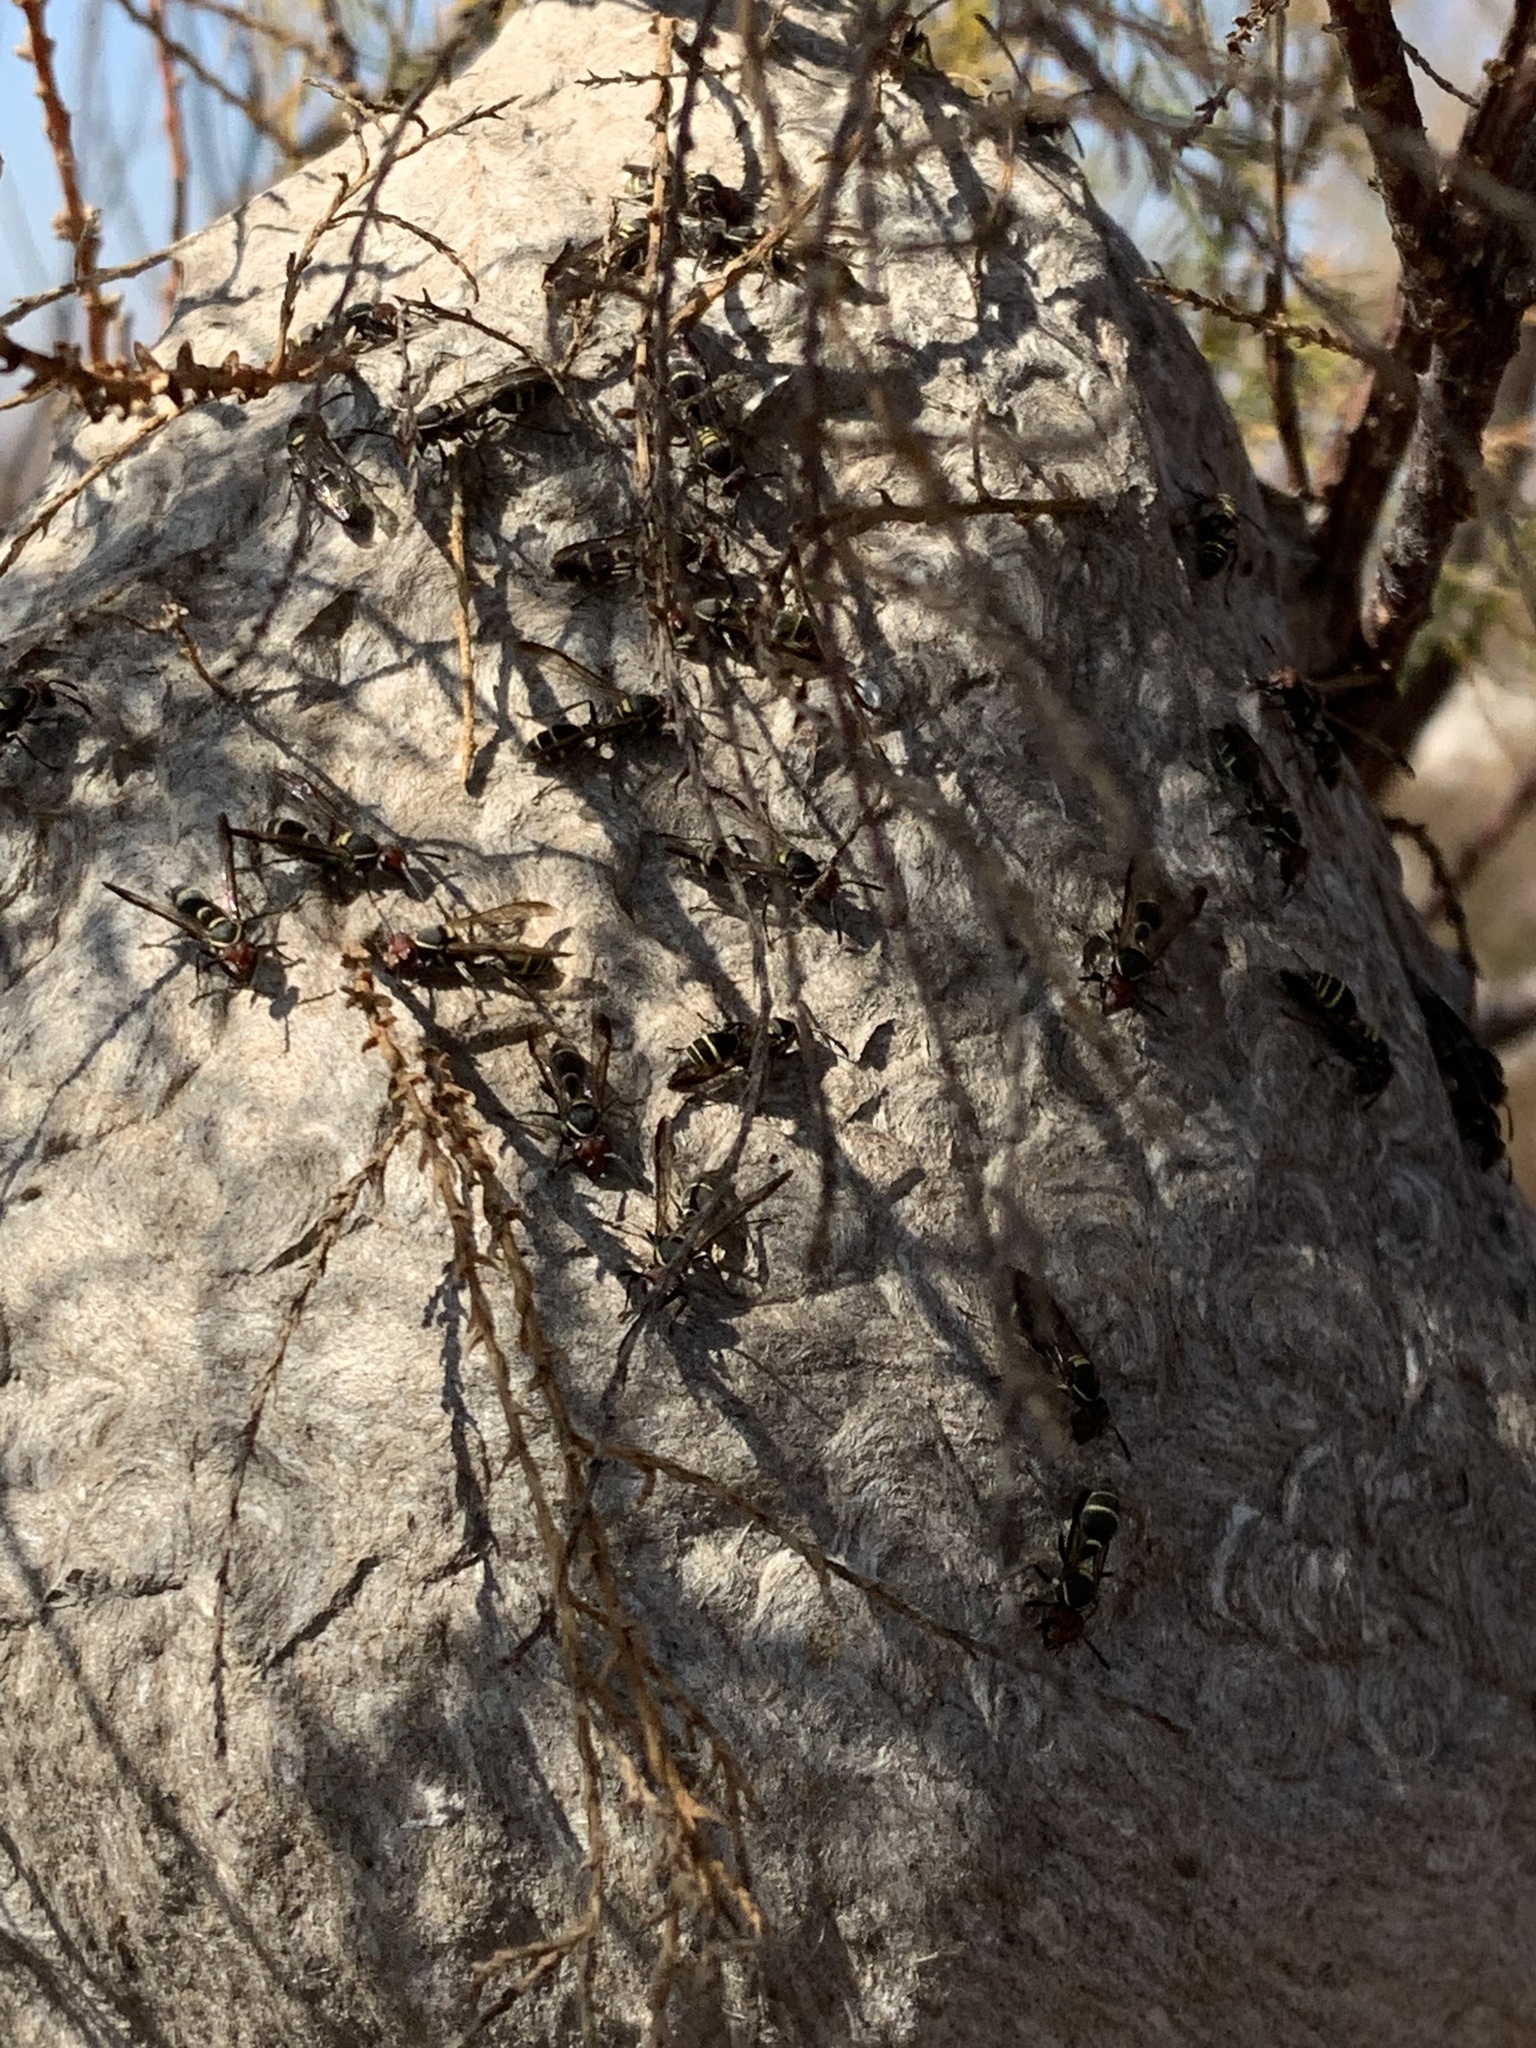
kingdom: Animalia
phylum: Arthropoda
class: Insecta
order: Hymenoptera
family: Eumenidae
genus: Polybia
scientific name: Polybia ruficeps
